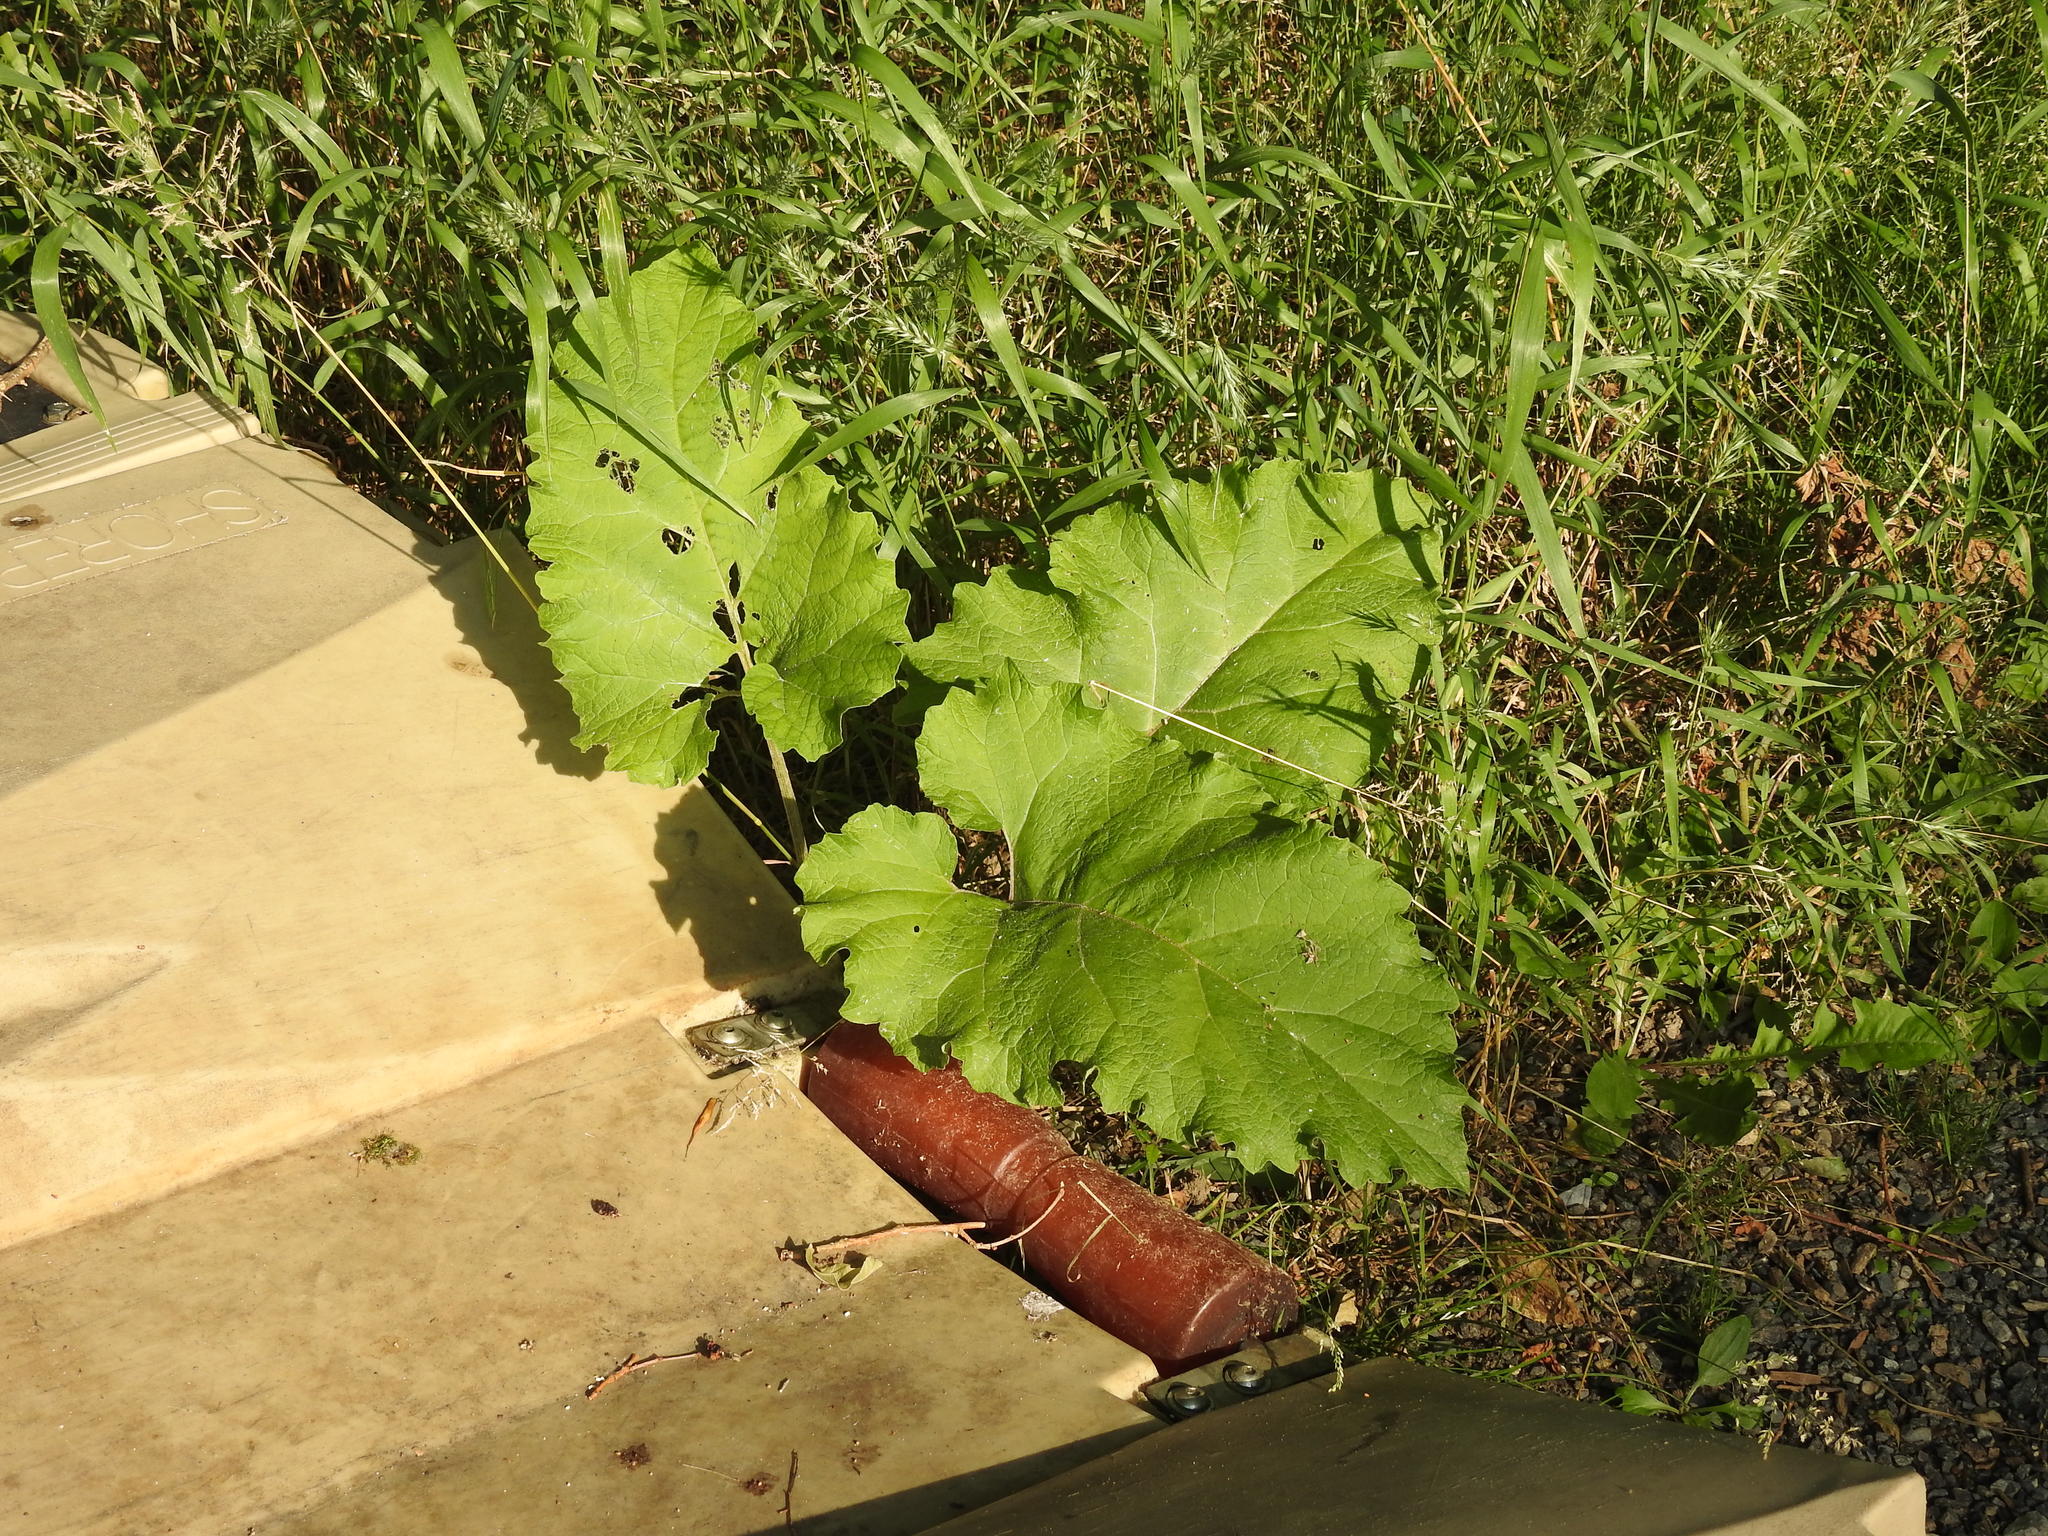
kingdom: Plantae
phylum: Tracheophyta
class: Magnoliopsida
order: Asterales
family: Asteraceae
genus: Arctium
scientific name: Arctium
